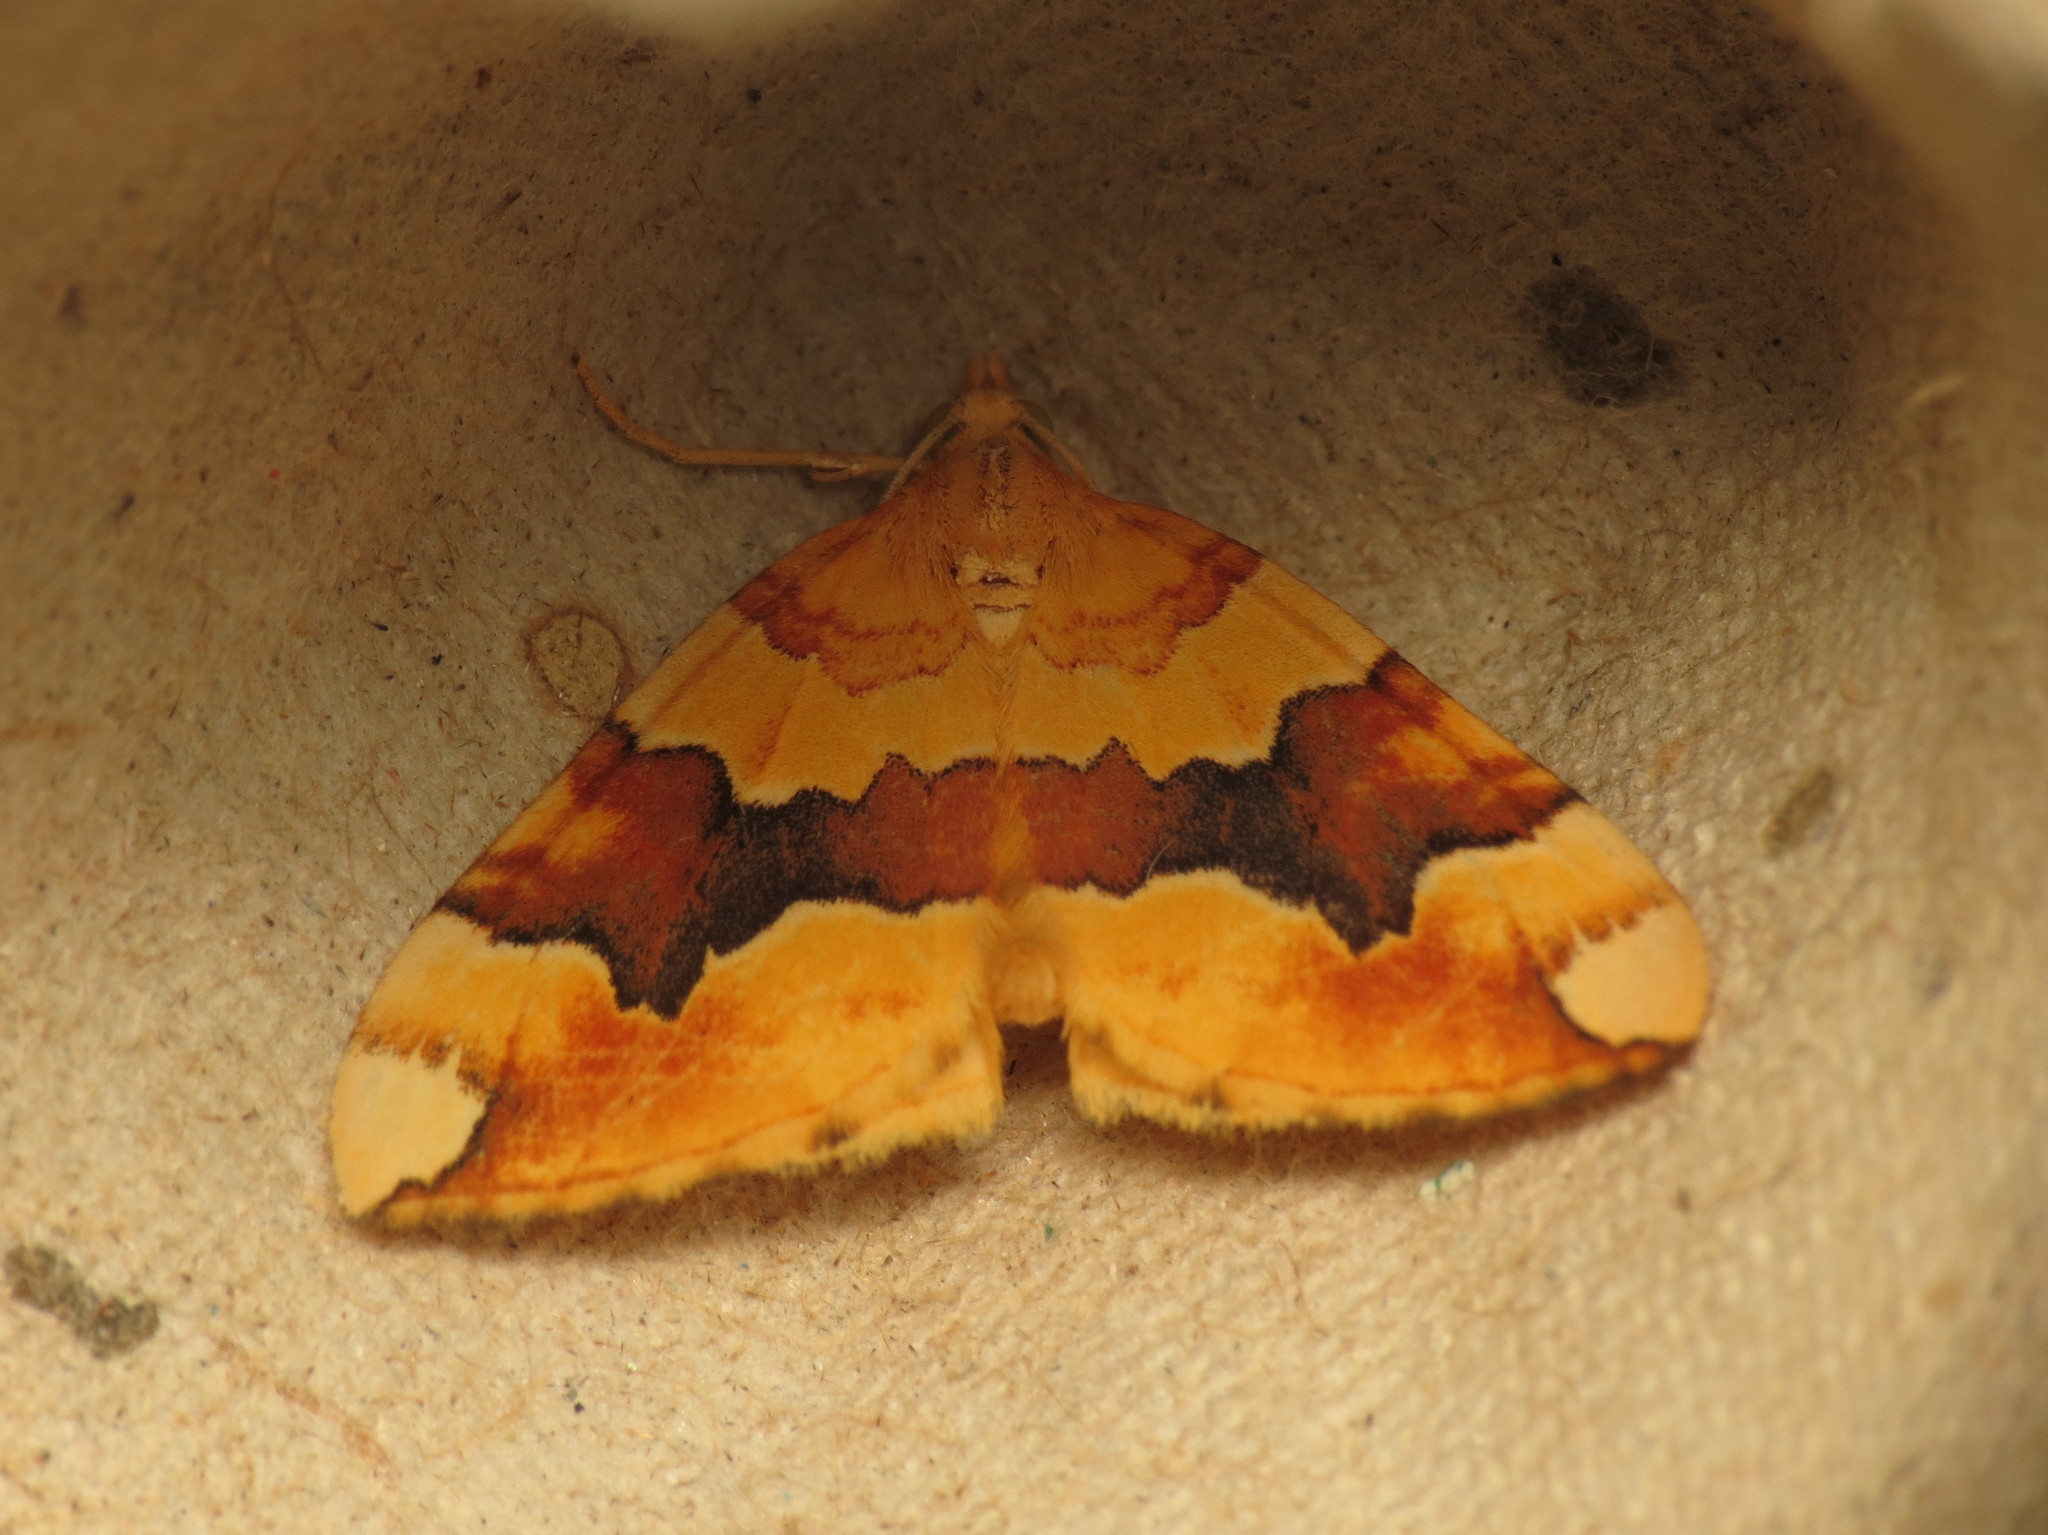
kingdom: Animalia
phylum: Arthropoda
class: Insecta
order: Lepidoptera
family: Geometridae
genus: Cidaria
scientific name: Cidaria fulvata
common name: Barred yellow
